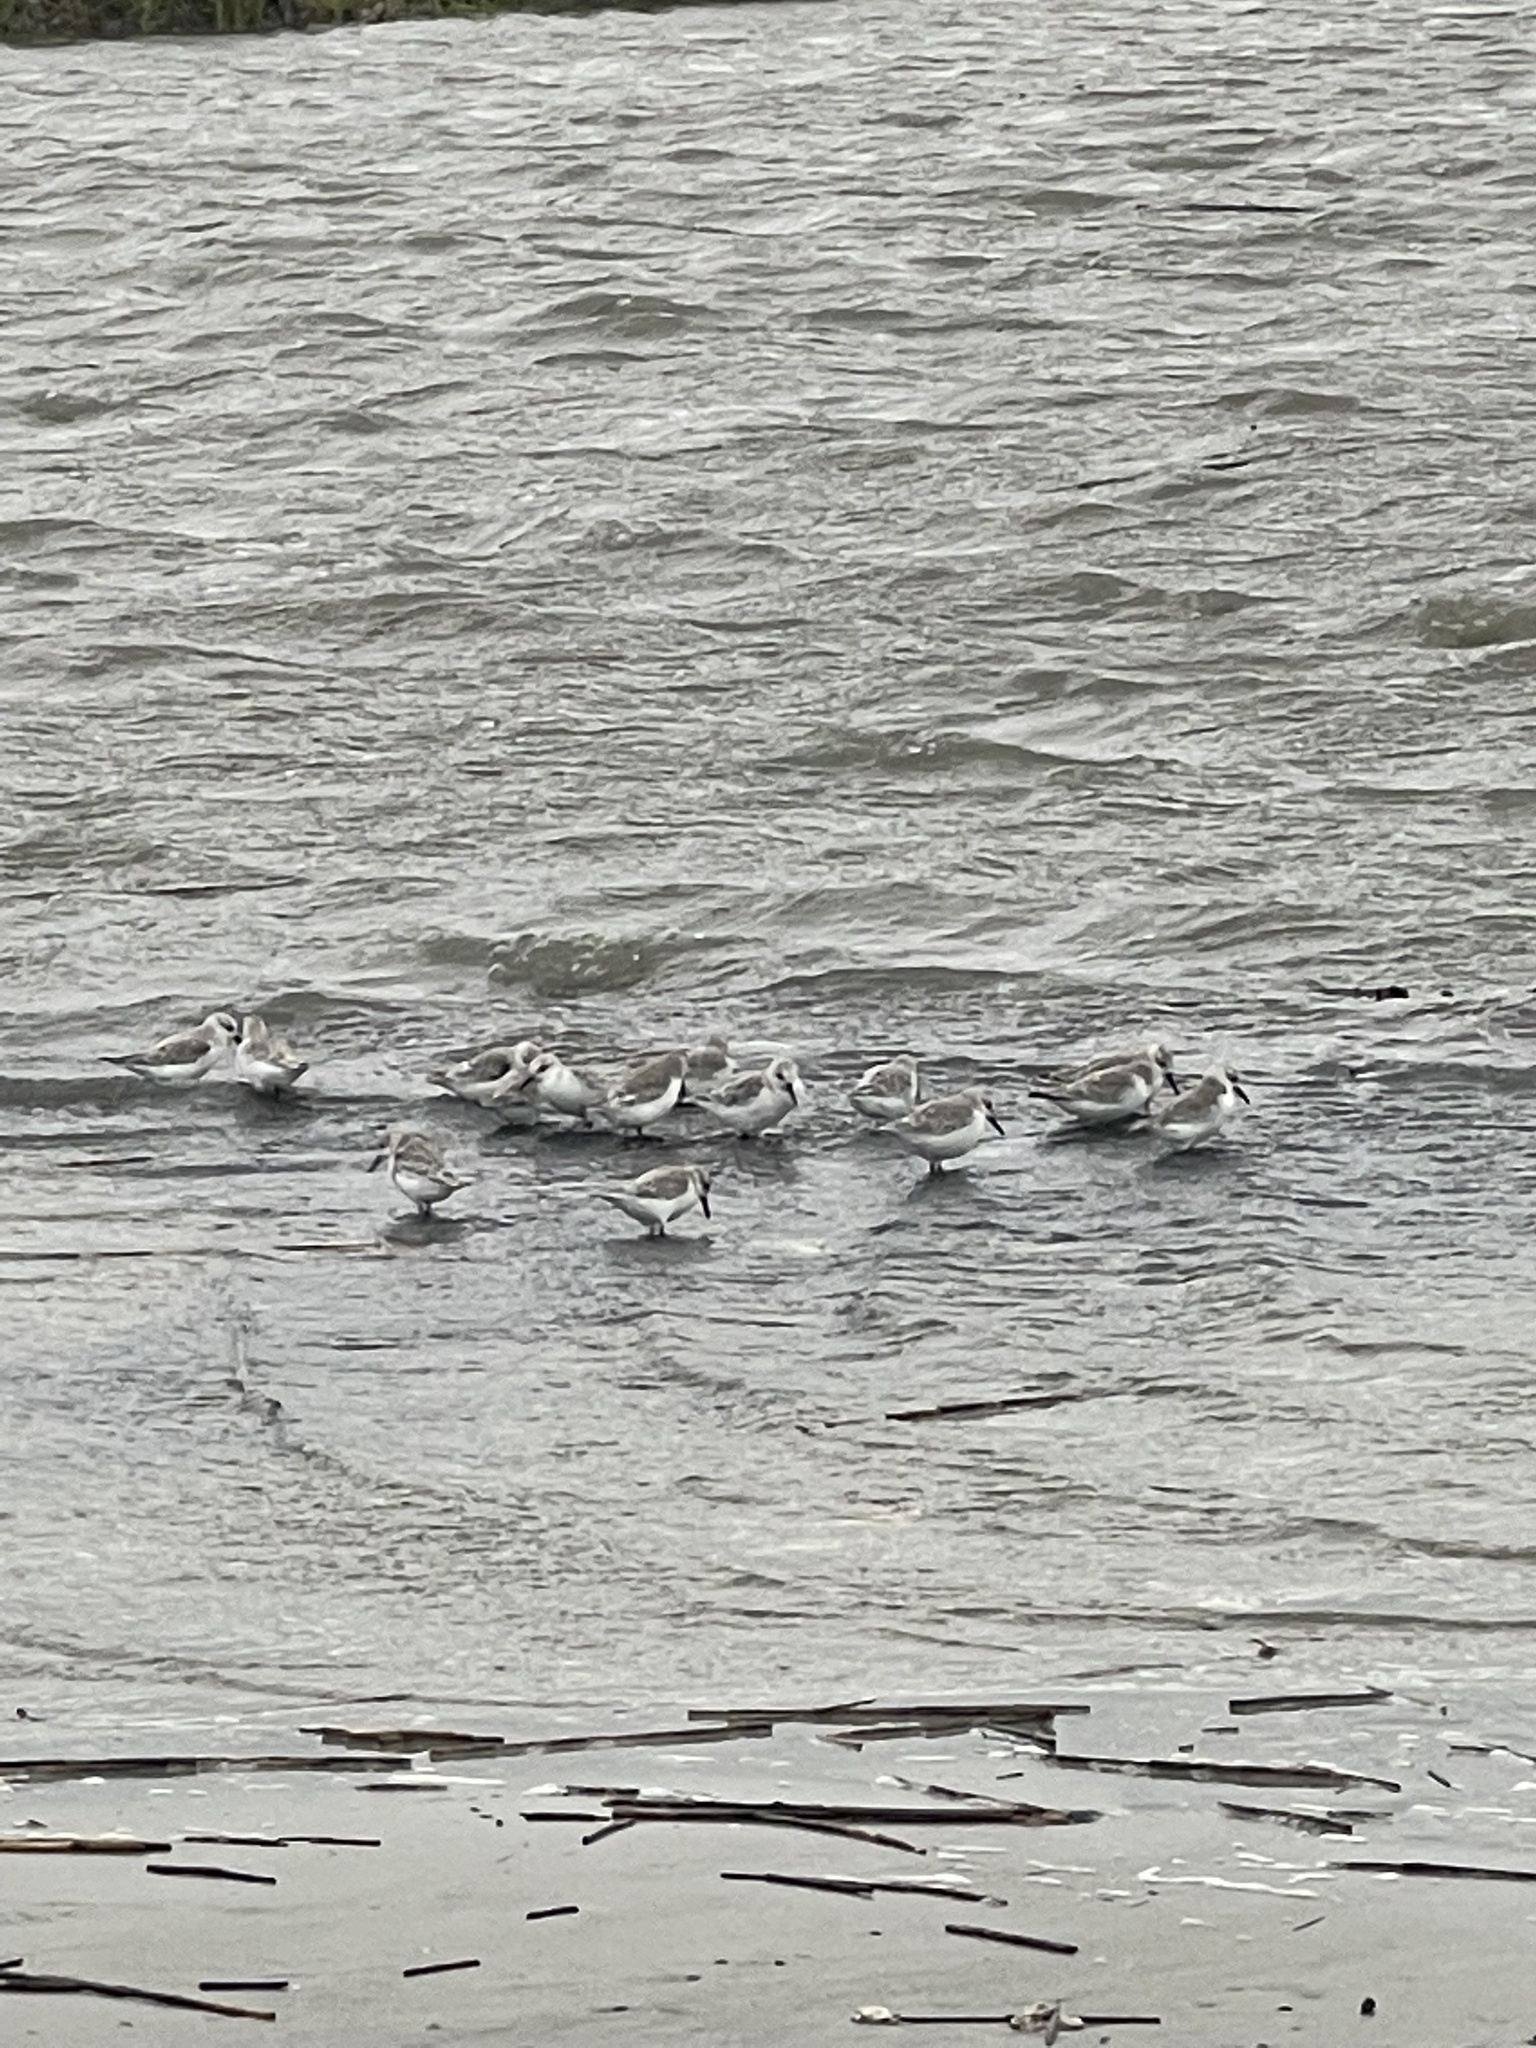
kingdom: Animalia
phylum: Chordata
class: Aves
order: Charadriiformes
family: Scolopacidae
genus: Calidris
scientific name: Calidris alba
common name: Sanderling
